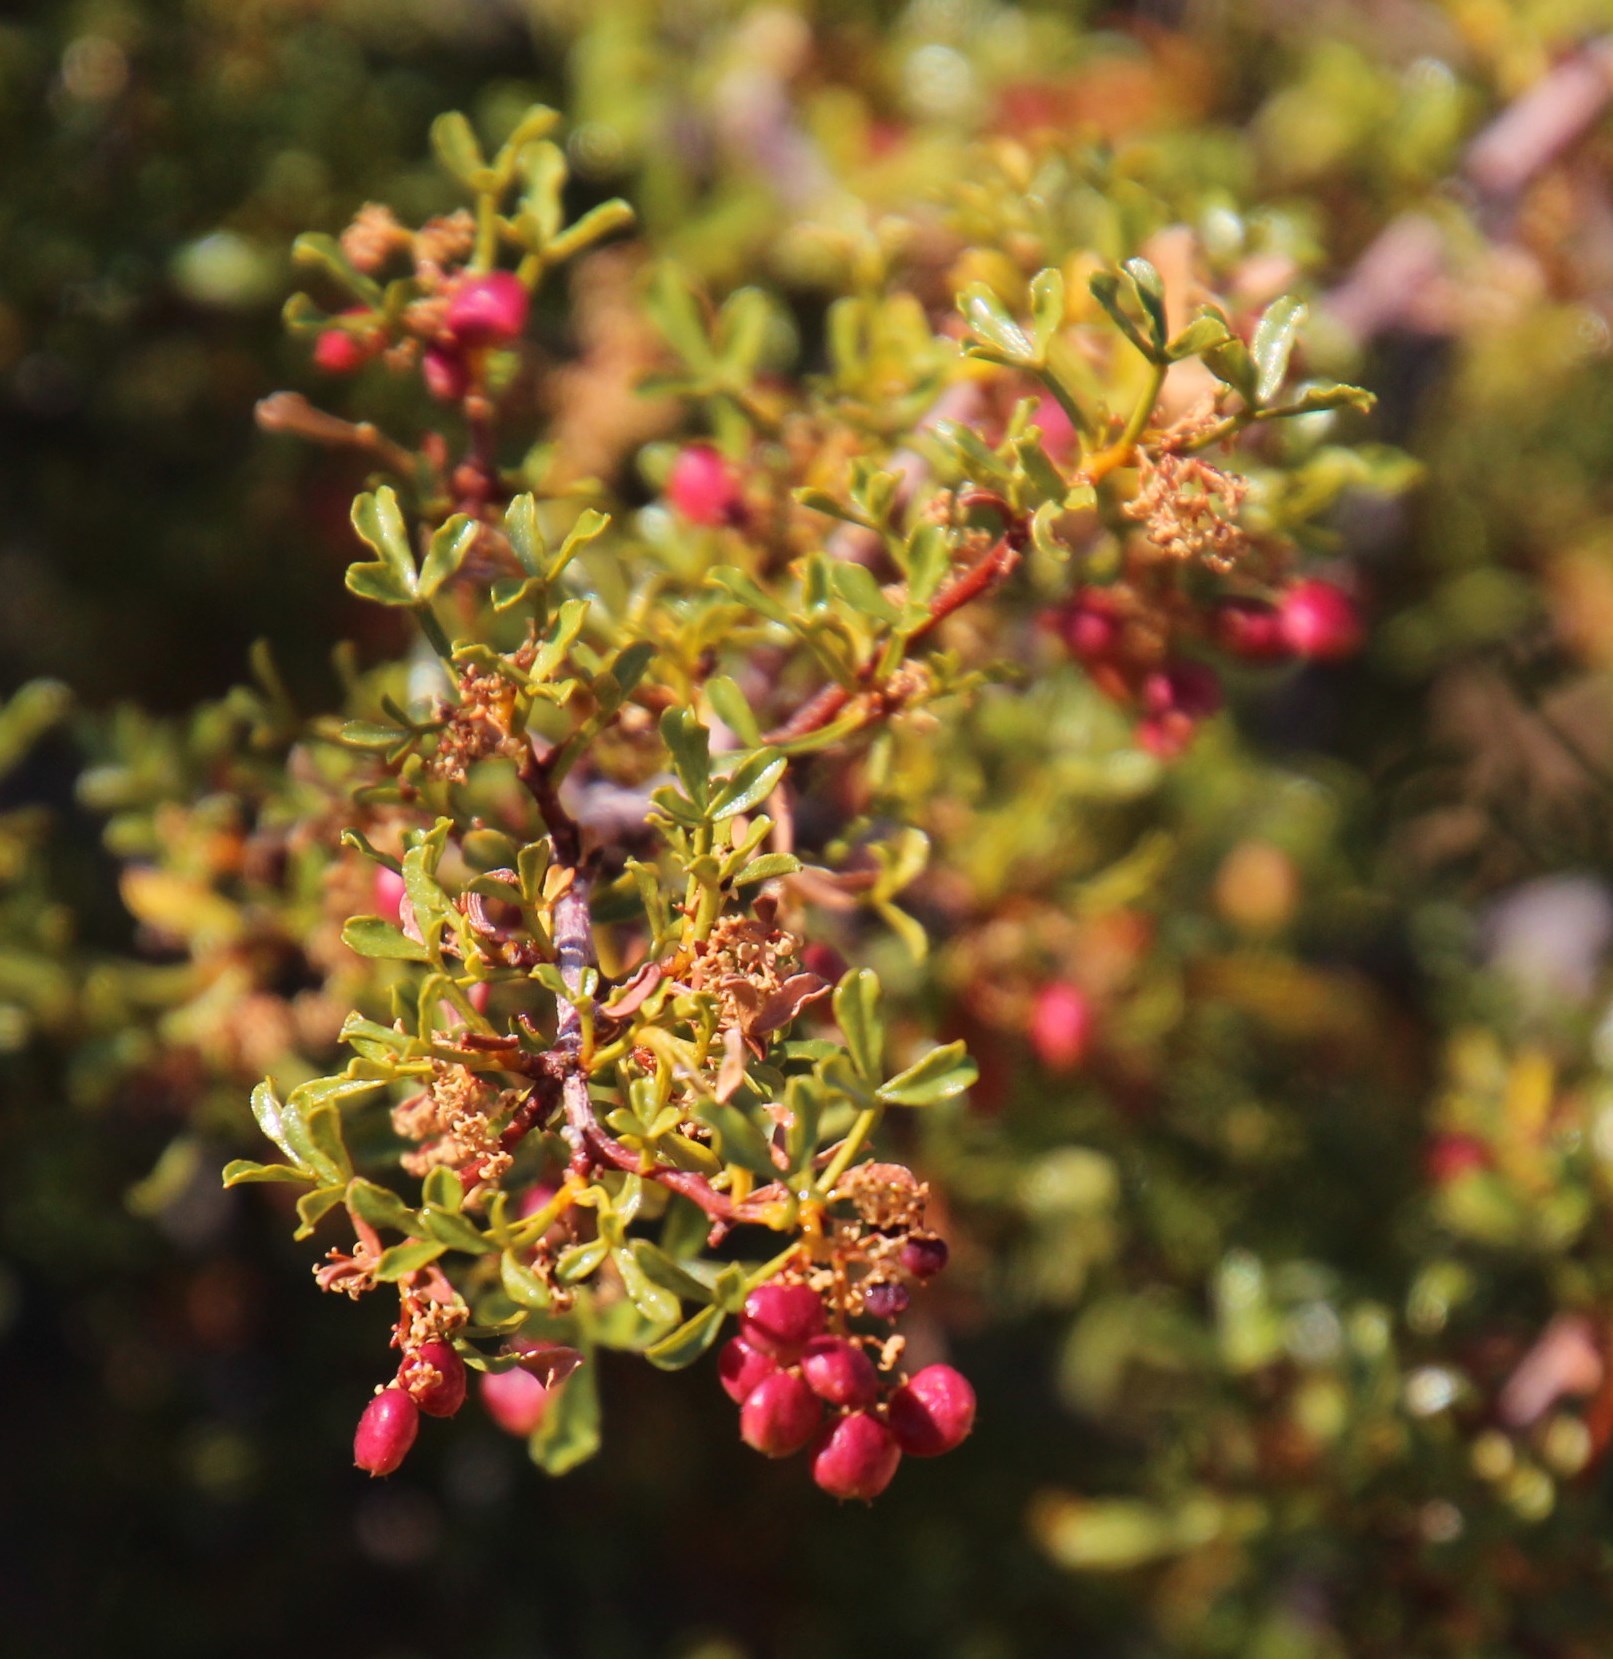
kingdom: Plantae
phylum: Tracheophyta
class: Magnoliopsida
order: Sapindales
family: Anacardiaceae
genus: Searsia
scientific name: Searsia undulata
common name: Namaqua kunibush
